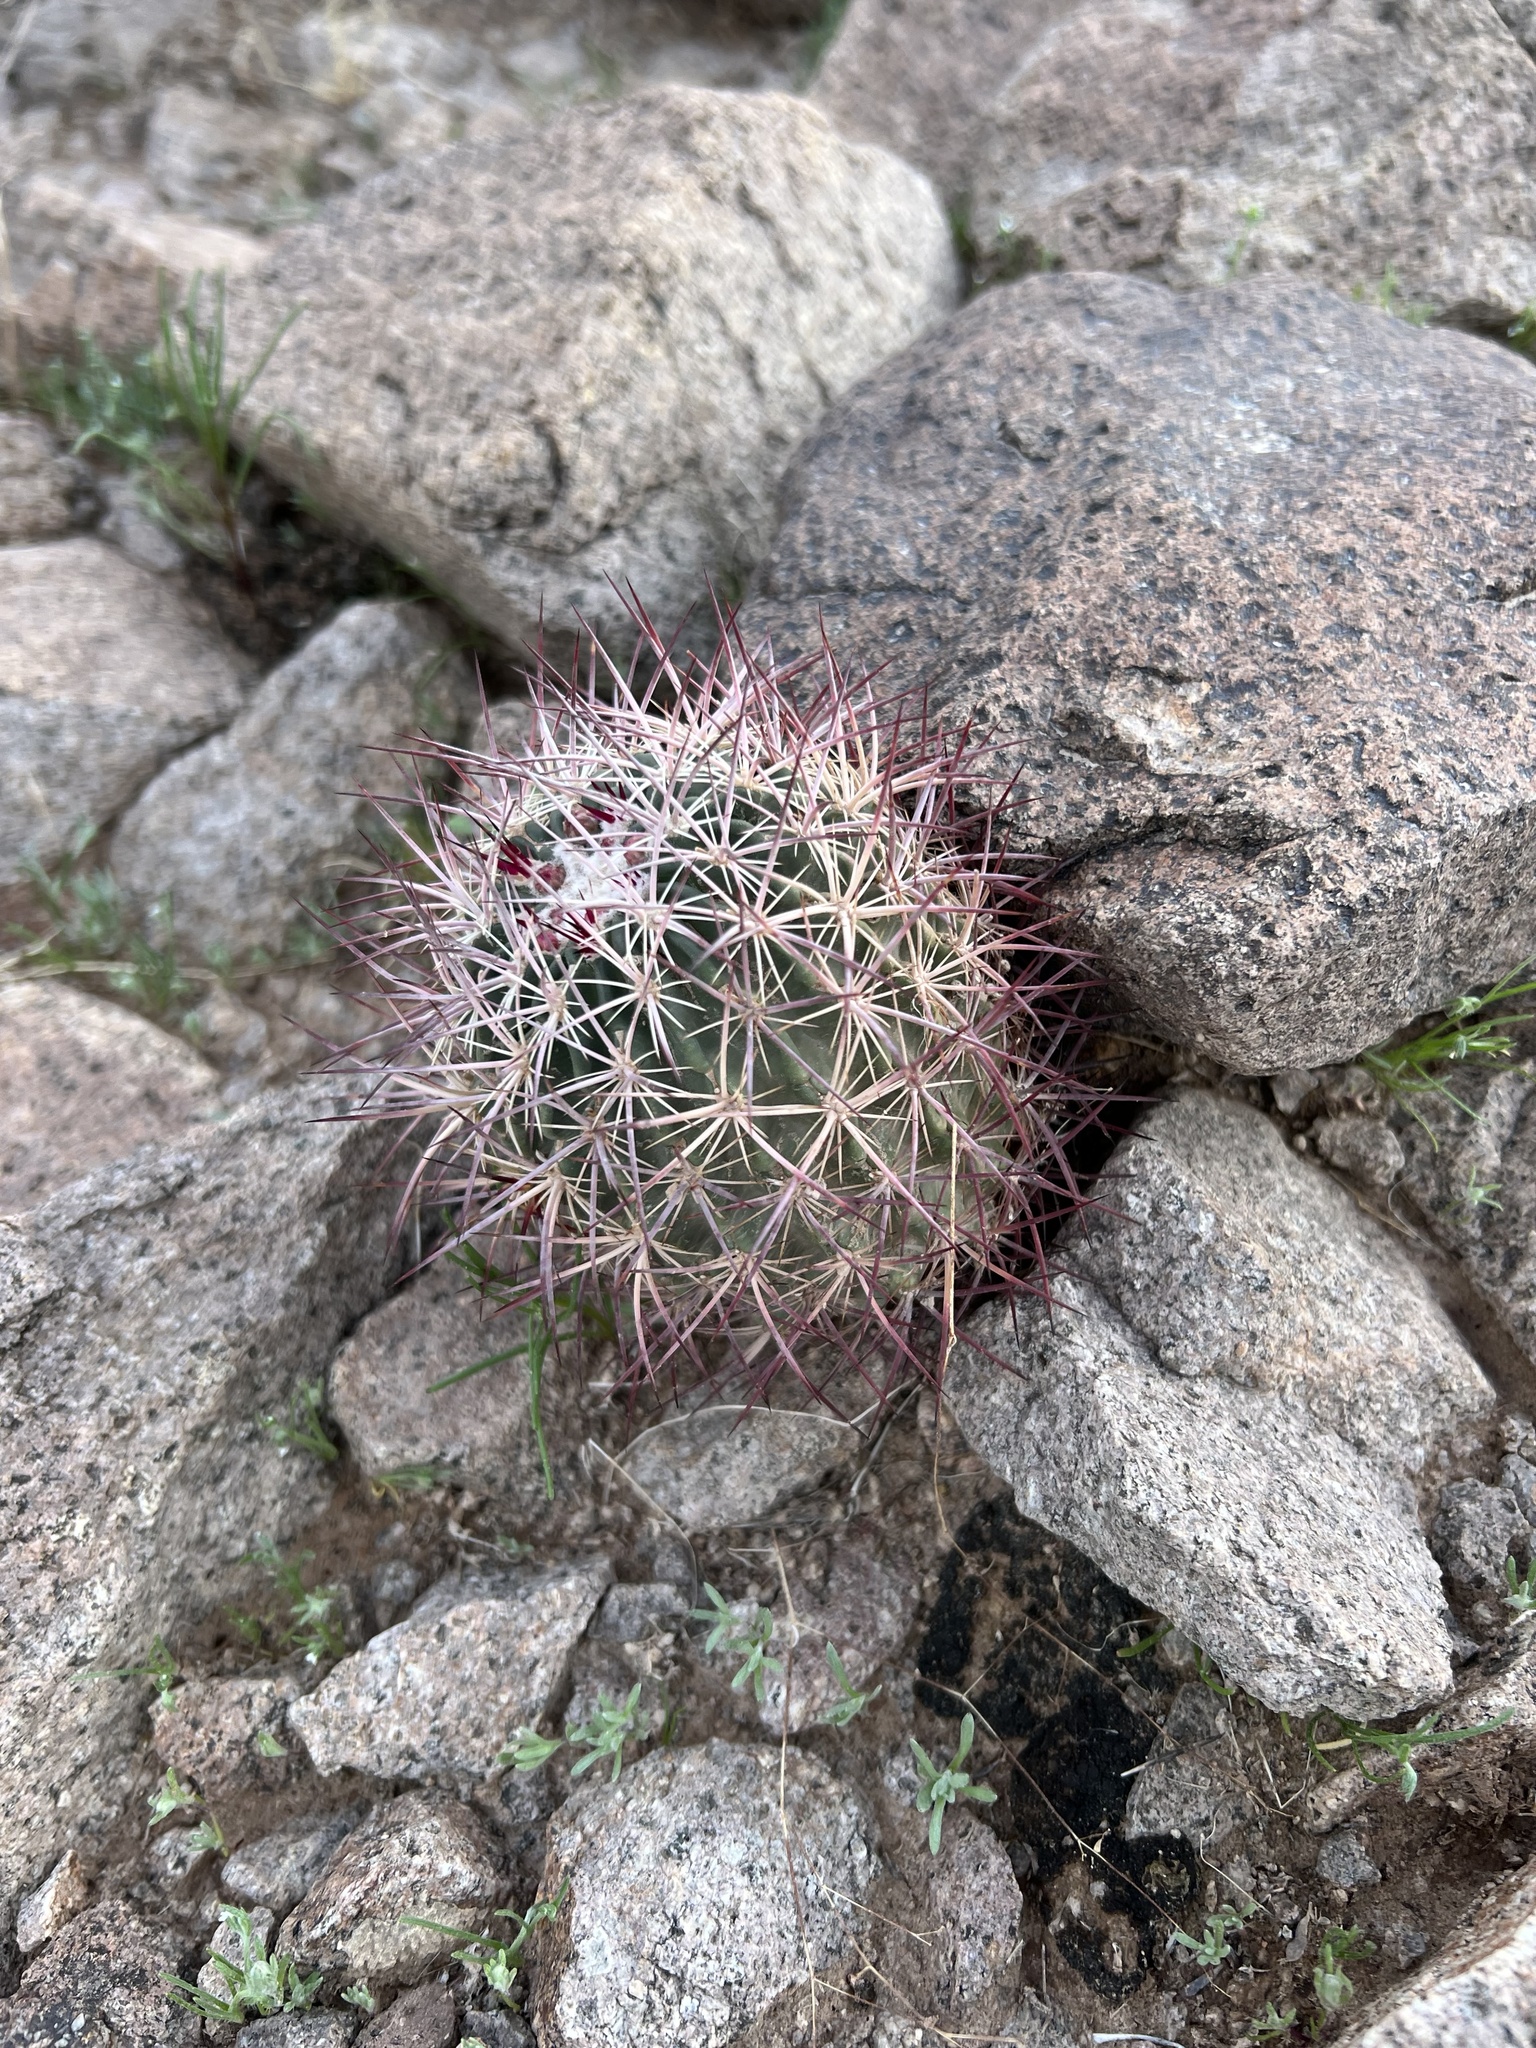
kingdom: Plantae
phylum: Tracheophyta
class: Magnoliopsida
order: Caryophyllales
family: Cactaceae
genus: Sclerocactus
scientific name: Sclerocactus johnsonii
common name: Eight-spine fishhook cactus
